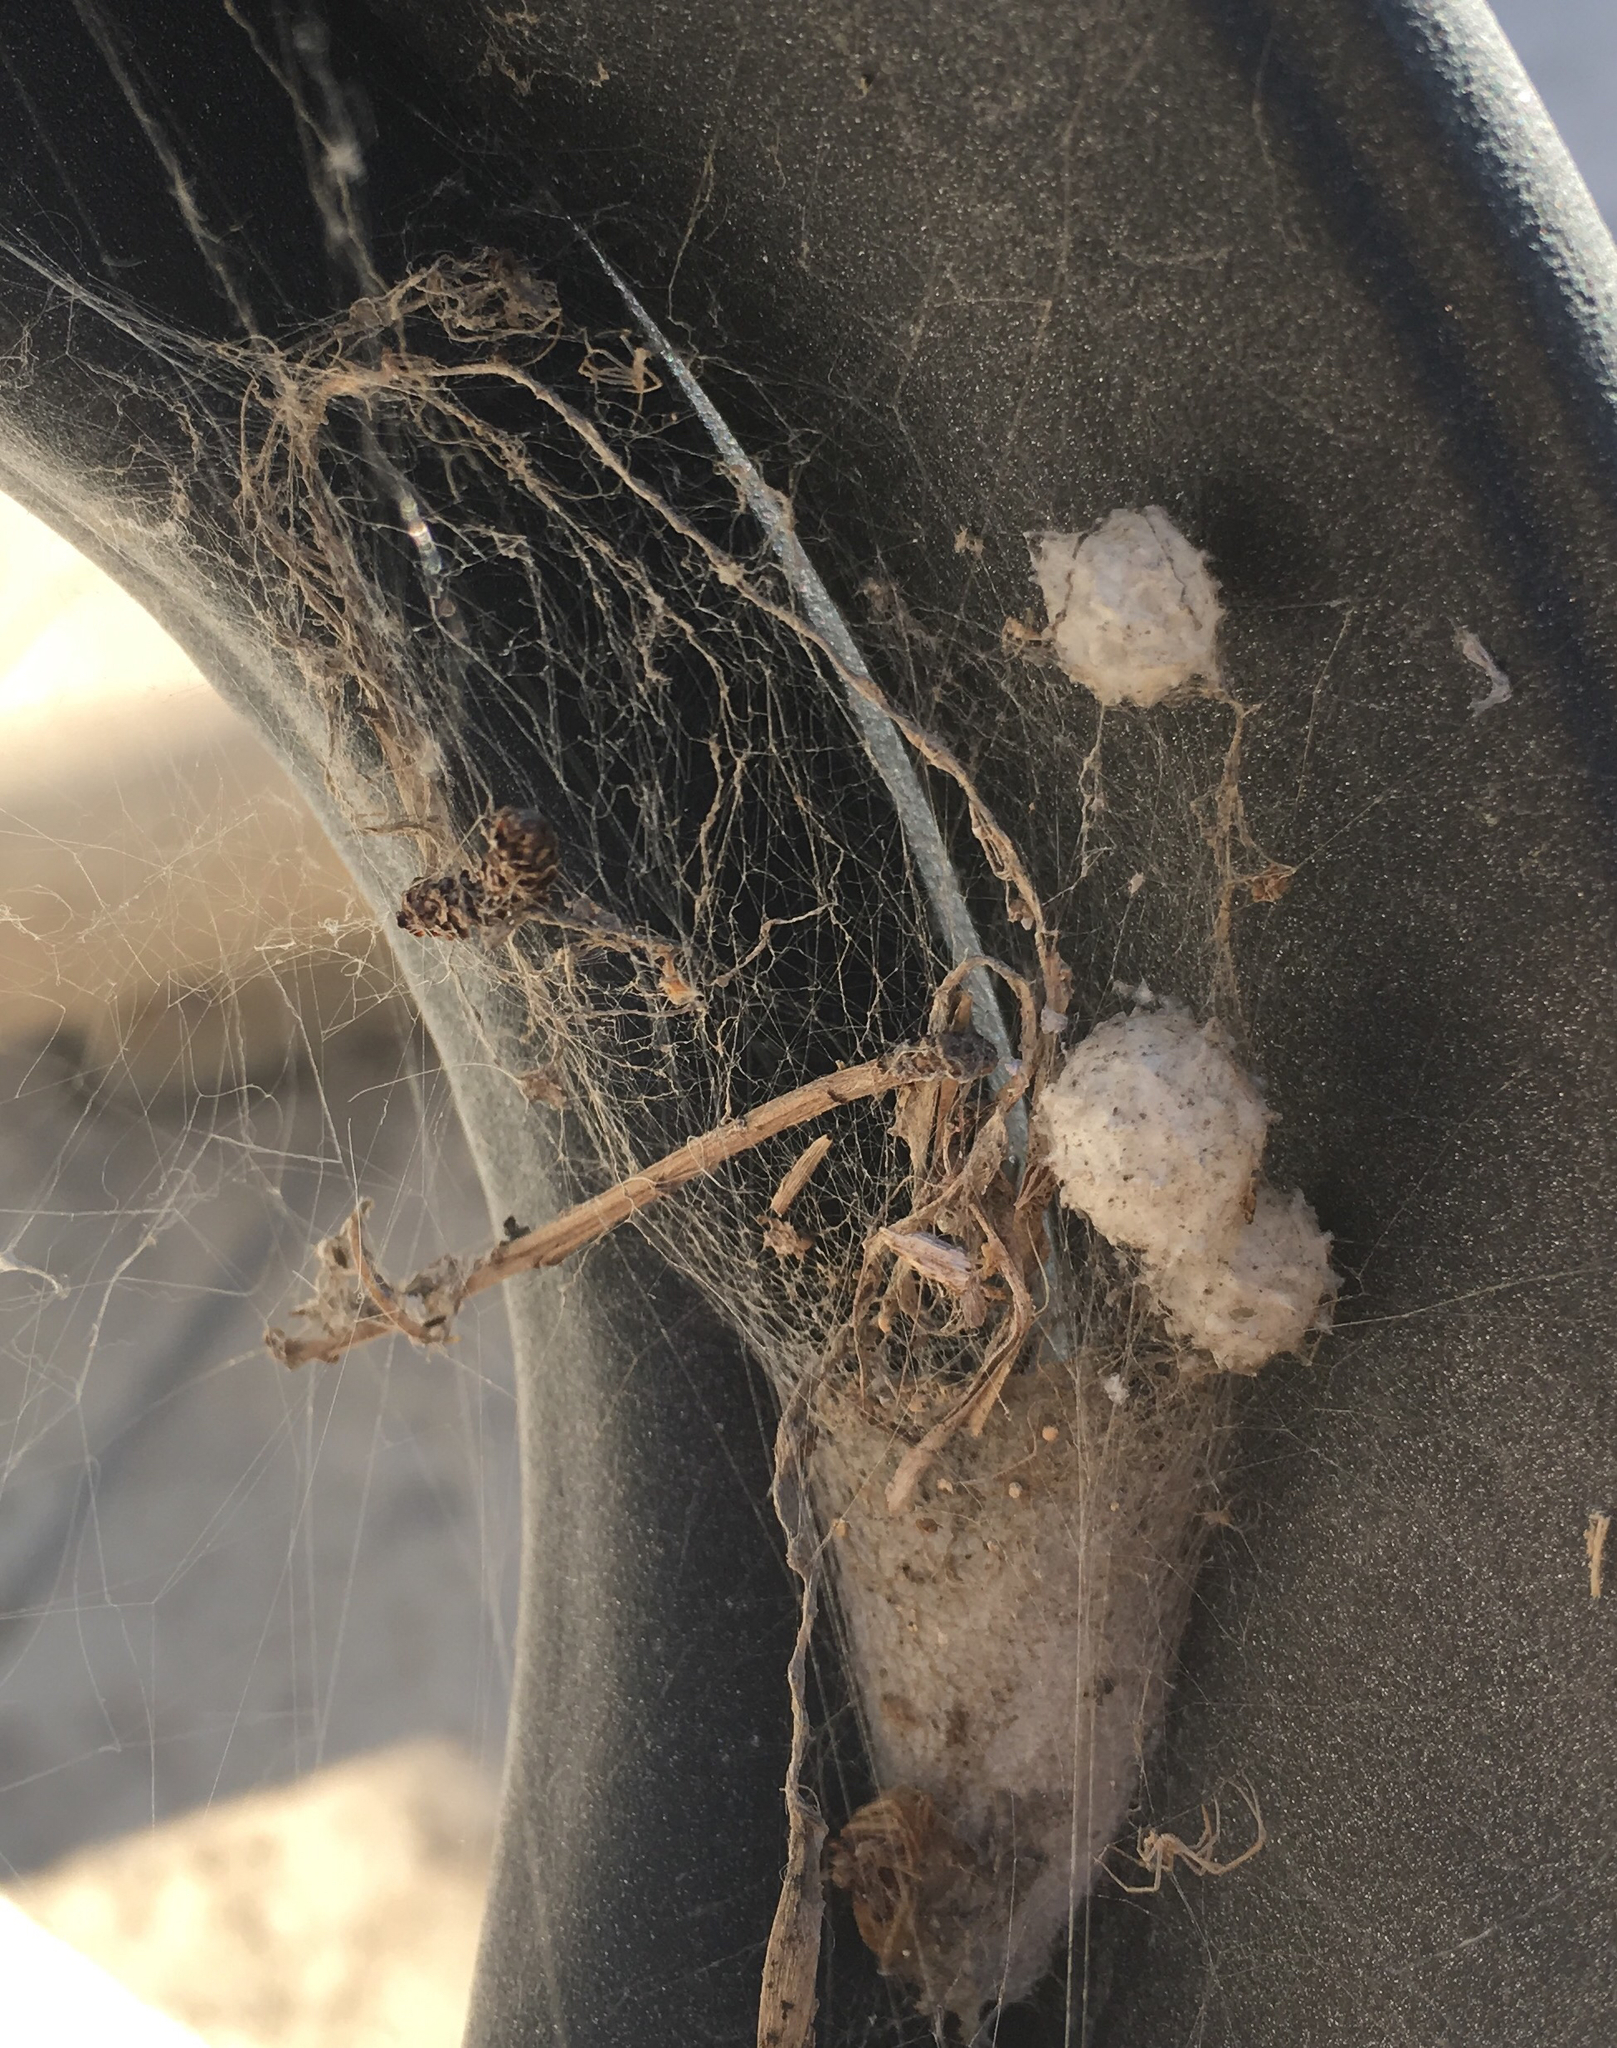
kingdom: Animalia
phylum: Arthropoda
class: Arachnida
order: Araneae
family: Theridiidae
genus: Latrodectus
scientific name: Latrodectus geometricus
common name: Brown widow spider
